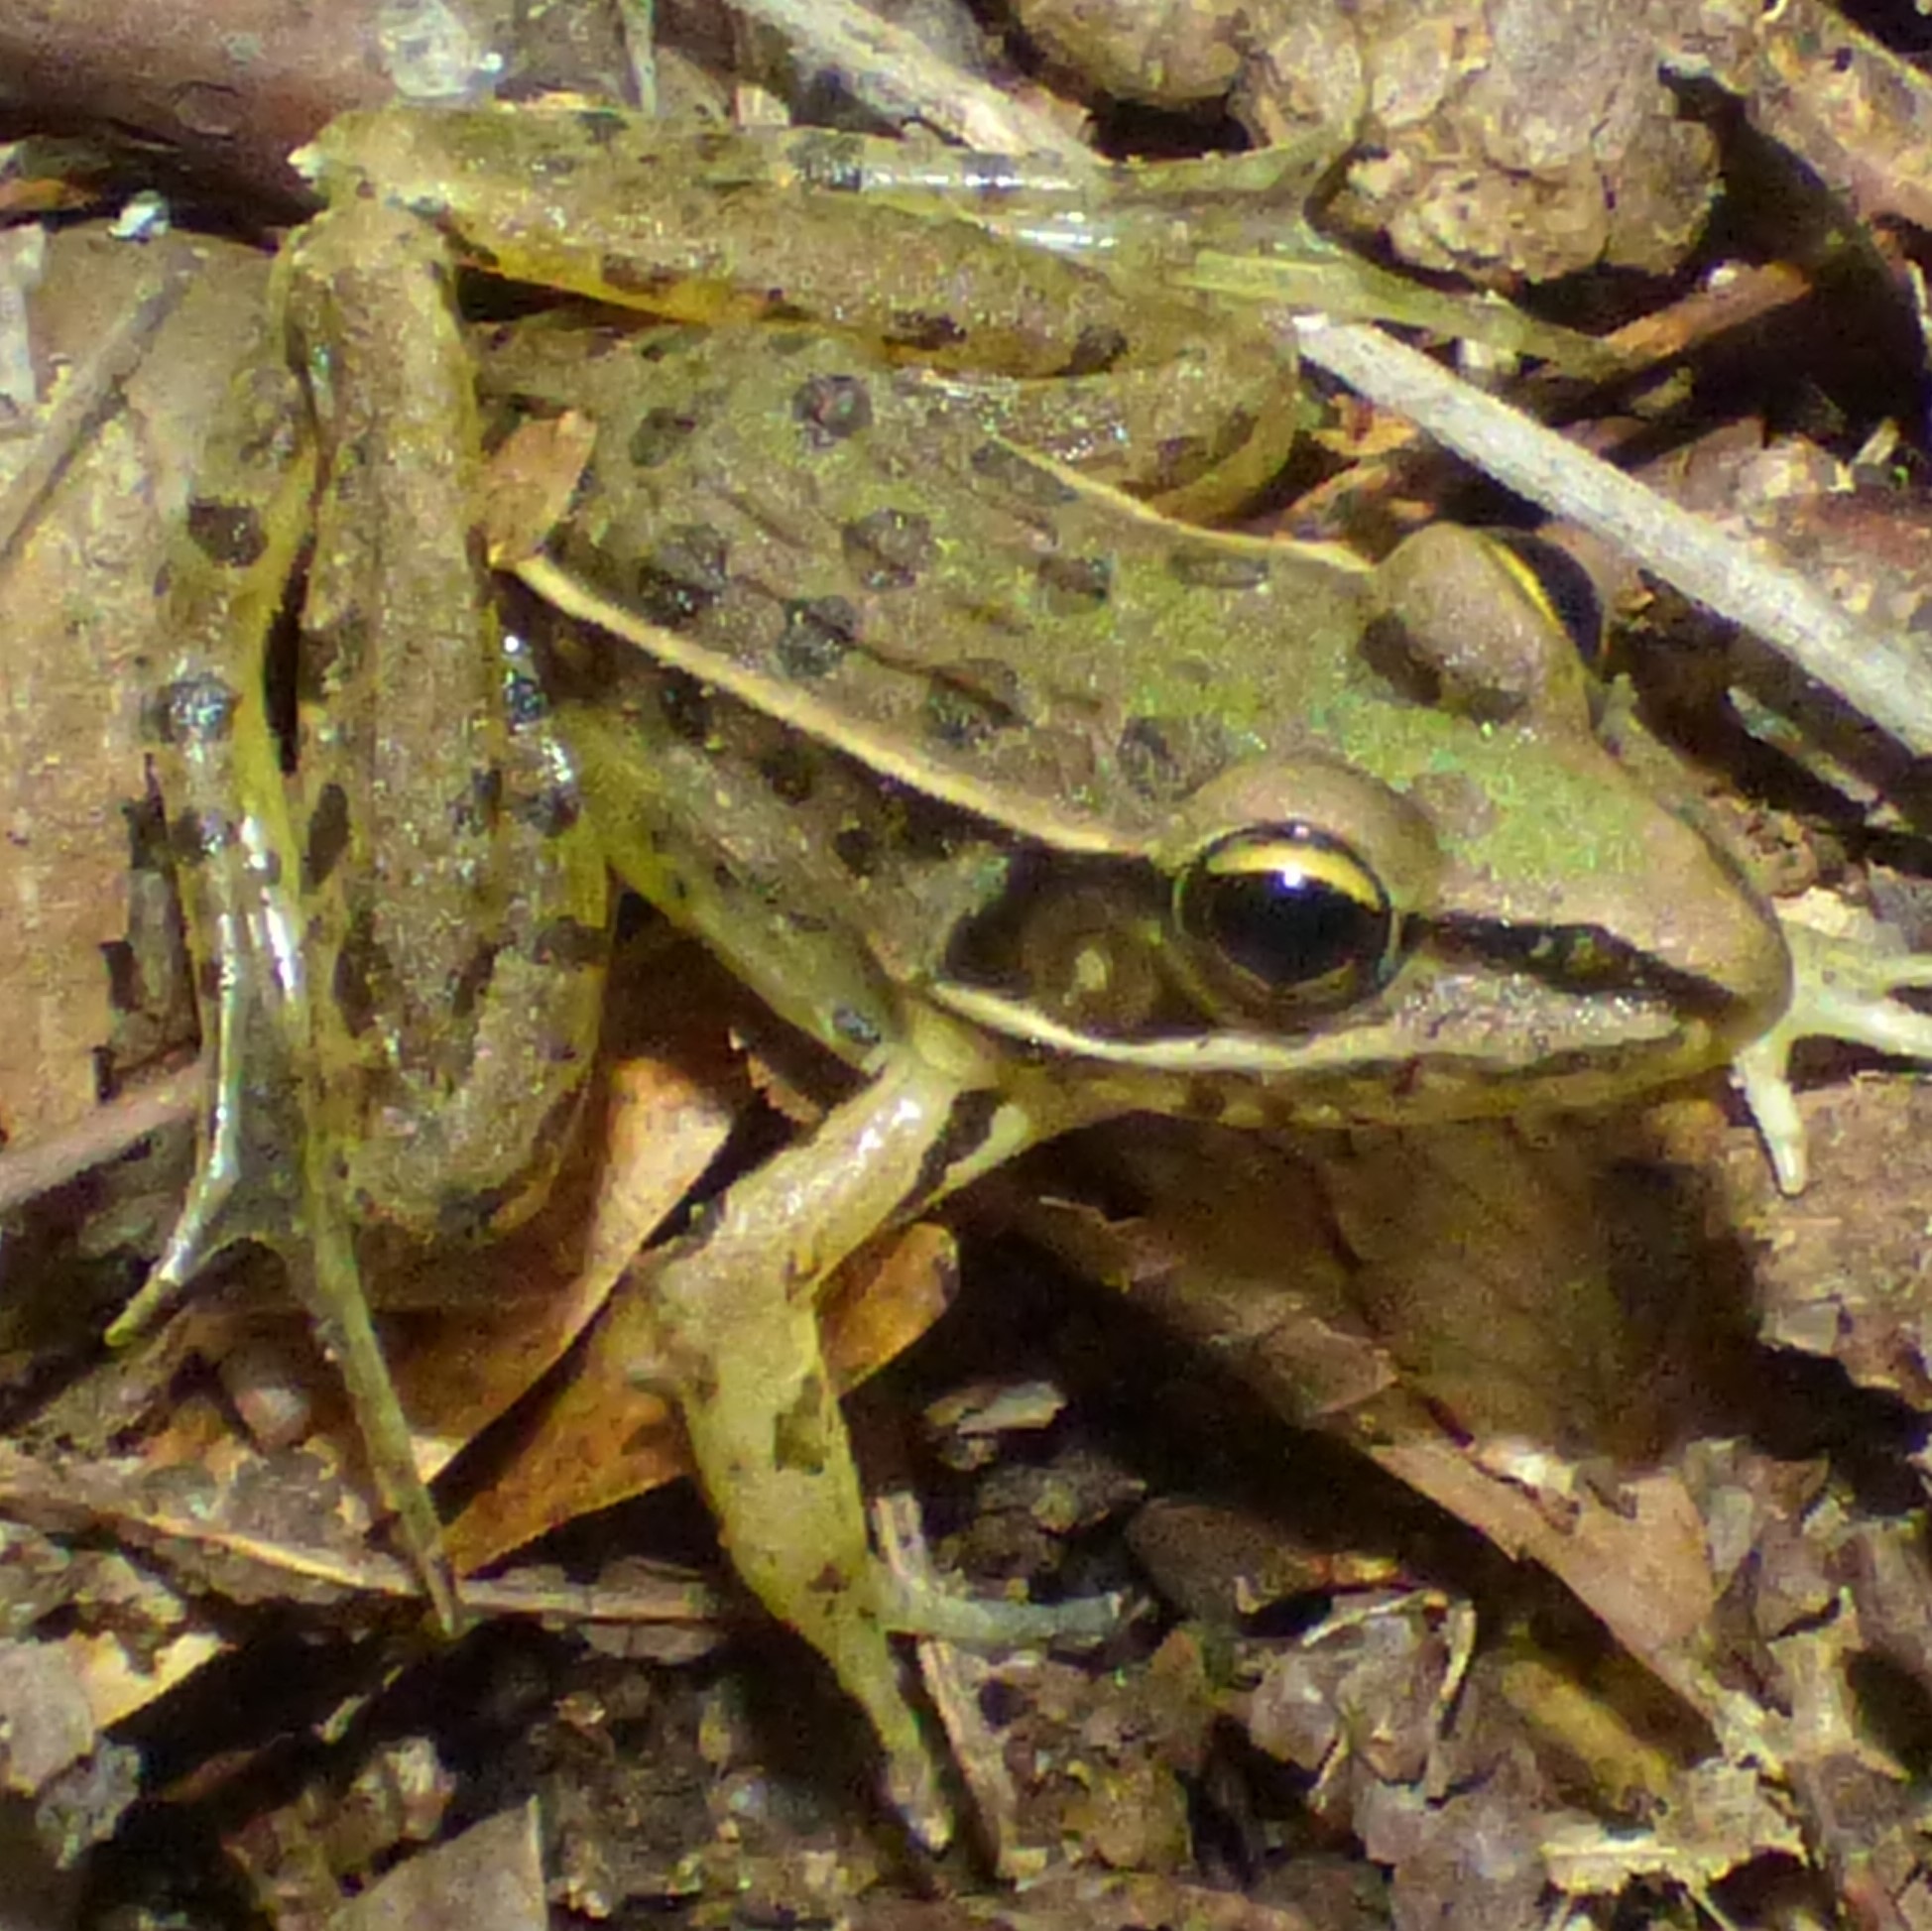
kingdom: Animalia
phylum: Chordata
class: Amphibia
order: Anura
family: Ranidae
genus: Lithobates
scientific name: Lithobates sphenocephalus
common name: Southern leopard frog
